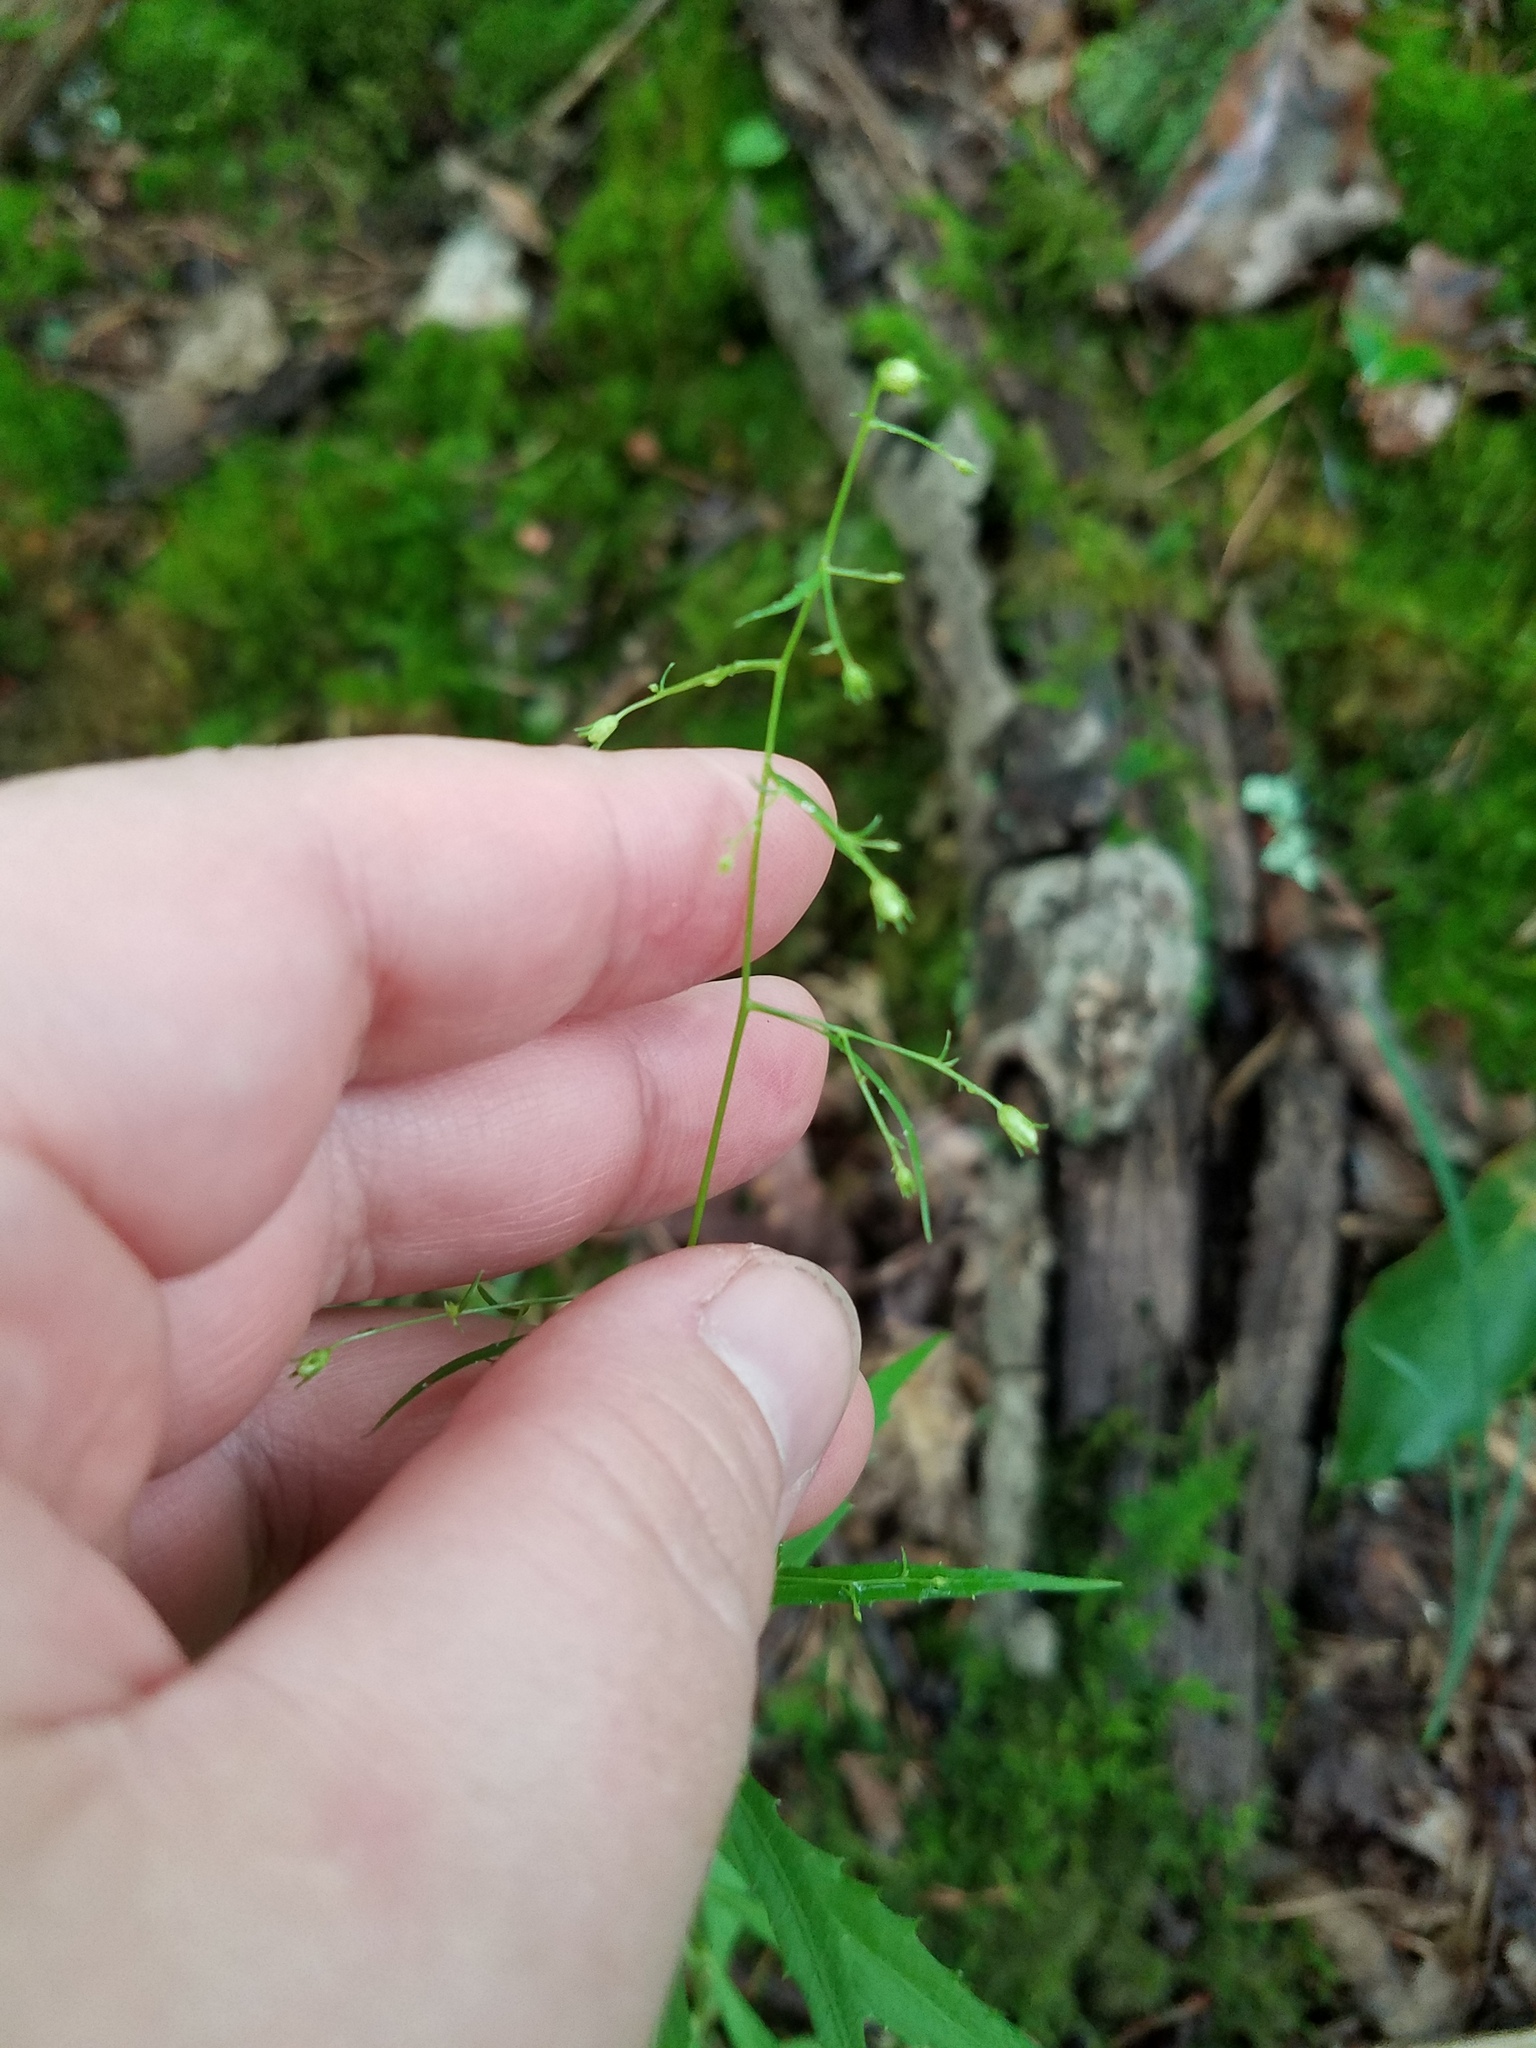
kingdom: Plantae
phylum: Tracheophyta
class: Magnoliopsida
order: Asterales
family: Campanulaceae
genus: Campanula
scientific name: Campanula divaricata
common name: Appalachian bellflower
